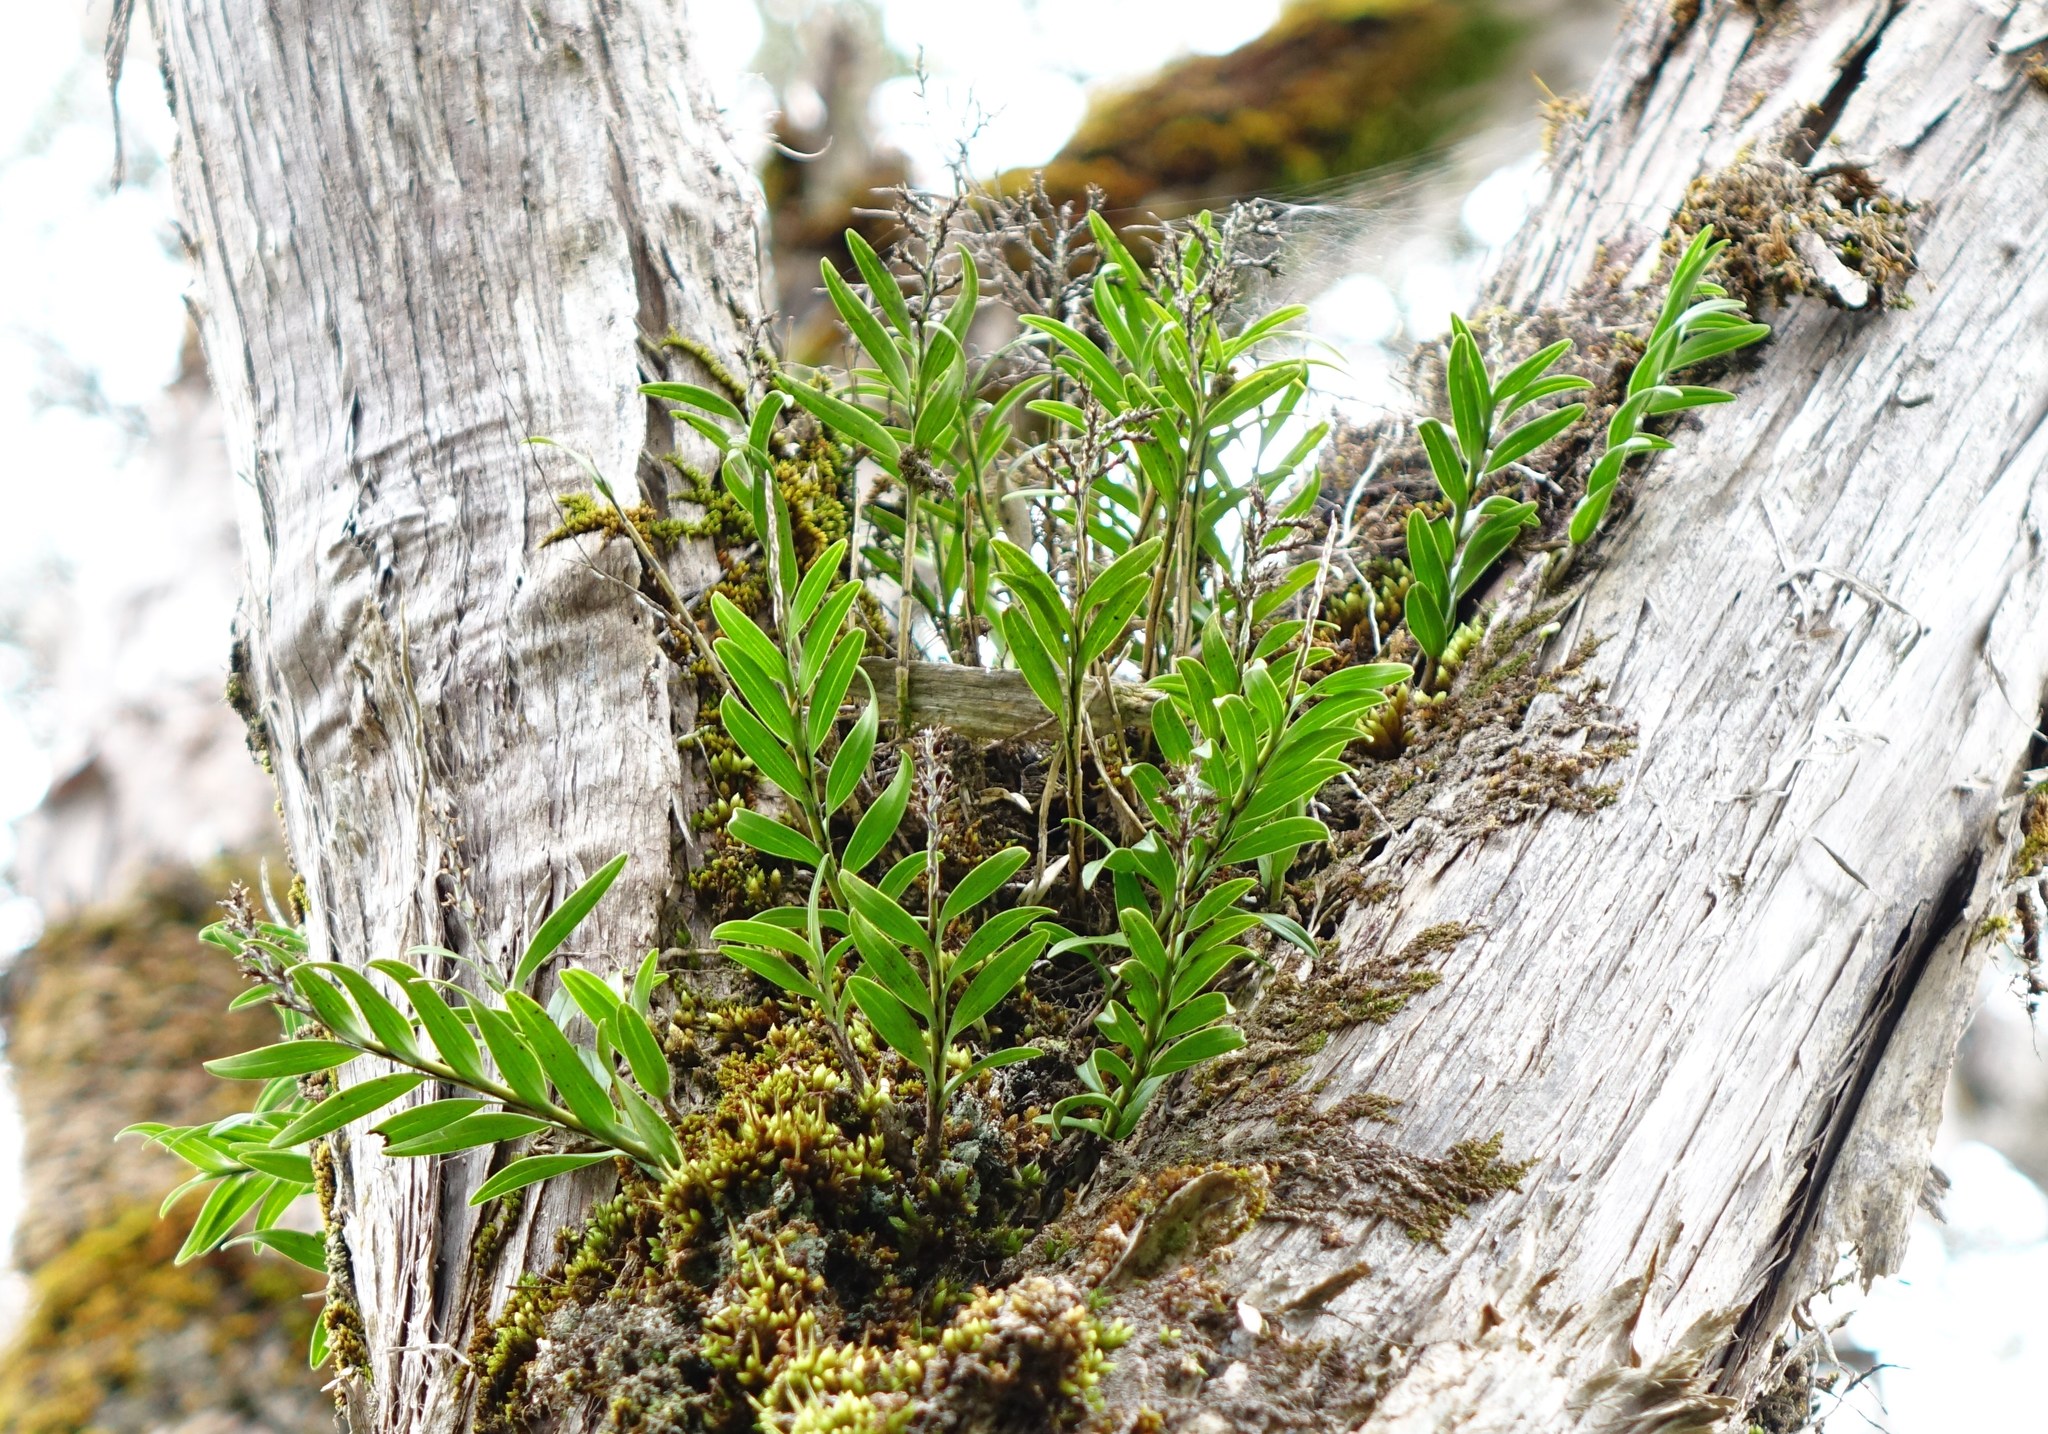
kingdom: Plantae
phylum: Tracheophyta
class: Liliopsida
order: Asparagales
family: Orchidaceae
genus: Earina
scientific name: Earina autumnalis
